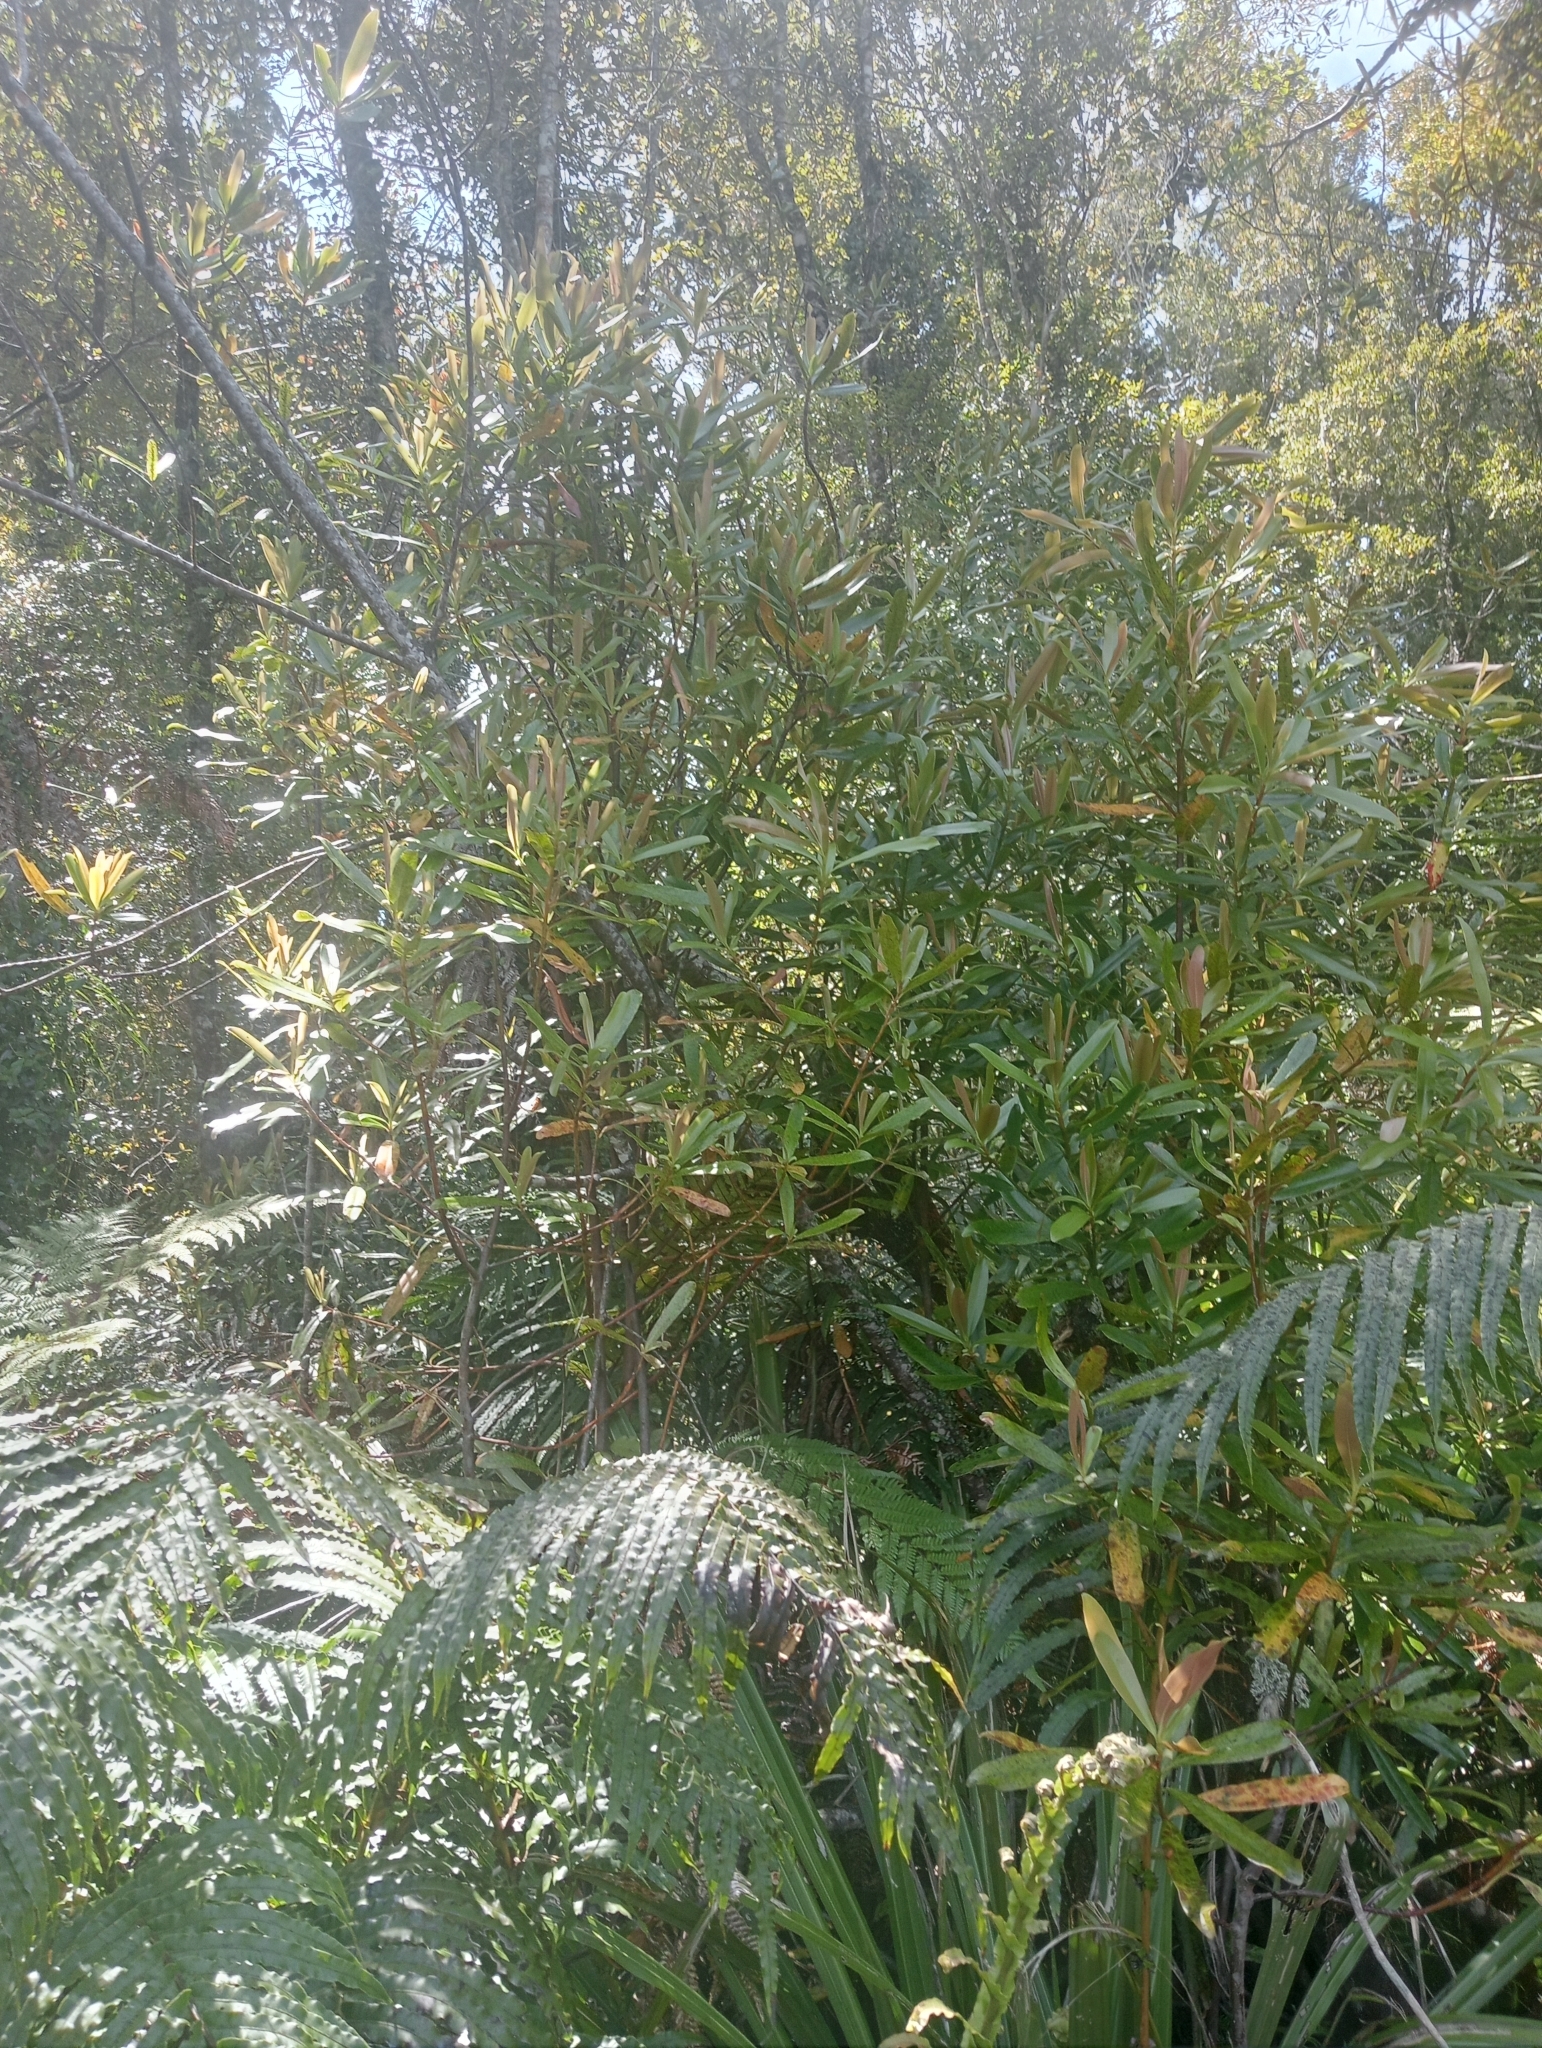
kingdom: Plantae
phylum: Tracheophyta
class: Magnoliopsida
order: Ericales
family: Primulaceae
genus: Myrsine
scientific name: Myrsine salicina
